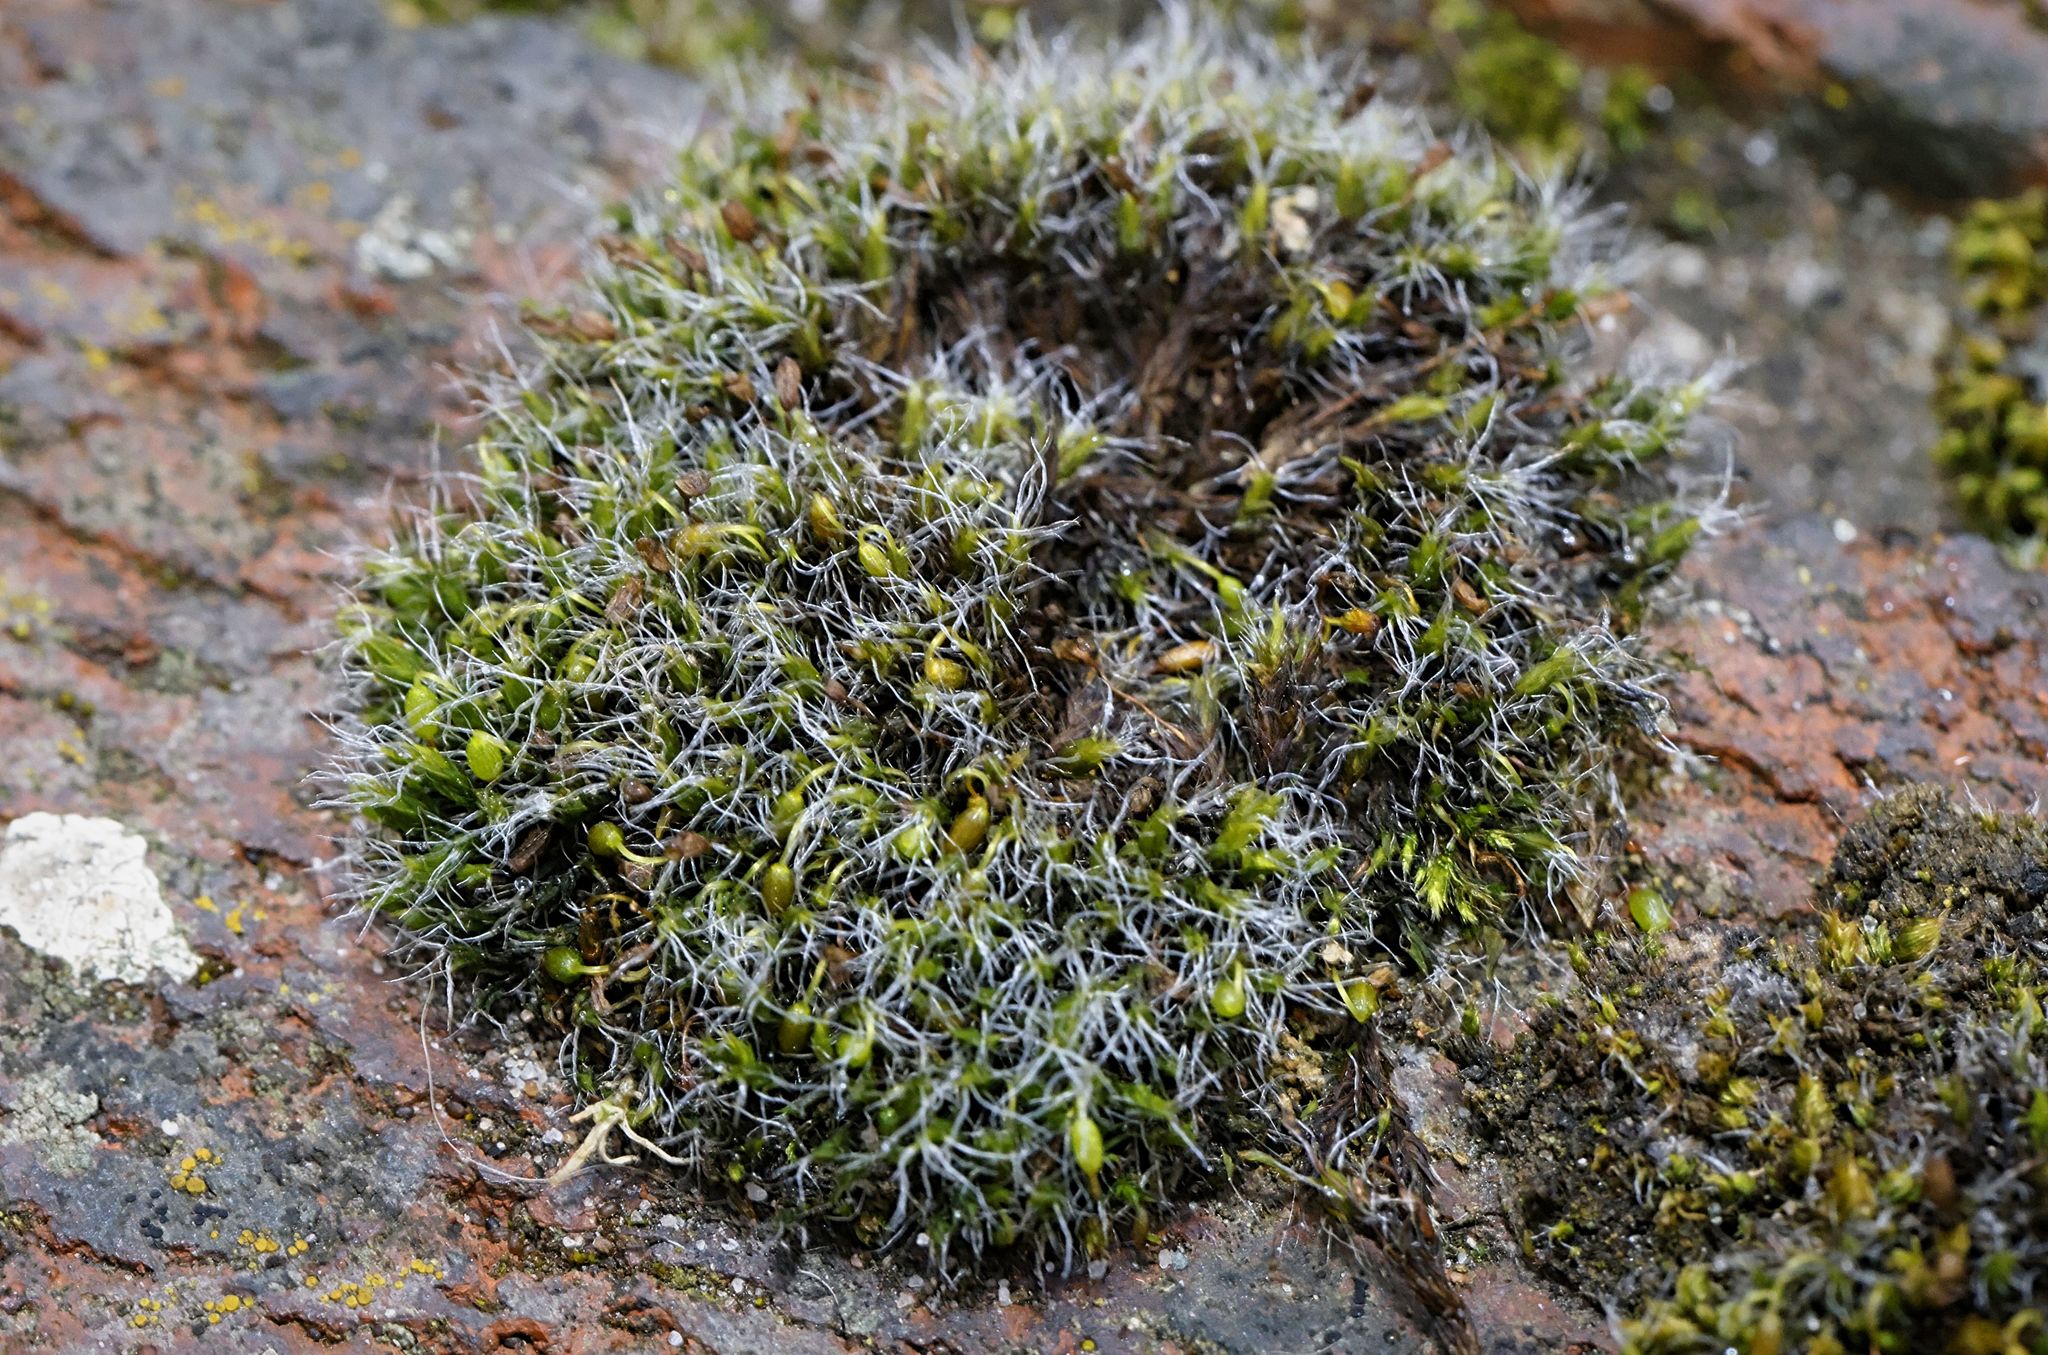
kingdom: Plantae
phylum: Bryophyta
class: Bryopsida
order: Grimmiales
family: Grimmiaceae
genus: Grimmia
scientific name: Grimmia pulvinata
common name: Grey-cushioned grimmia
